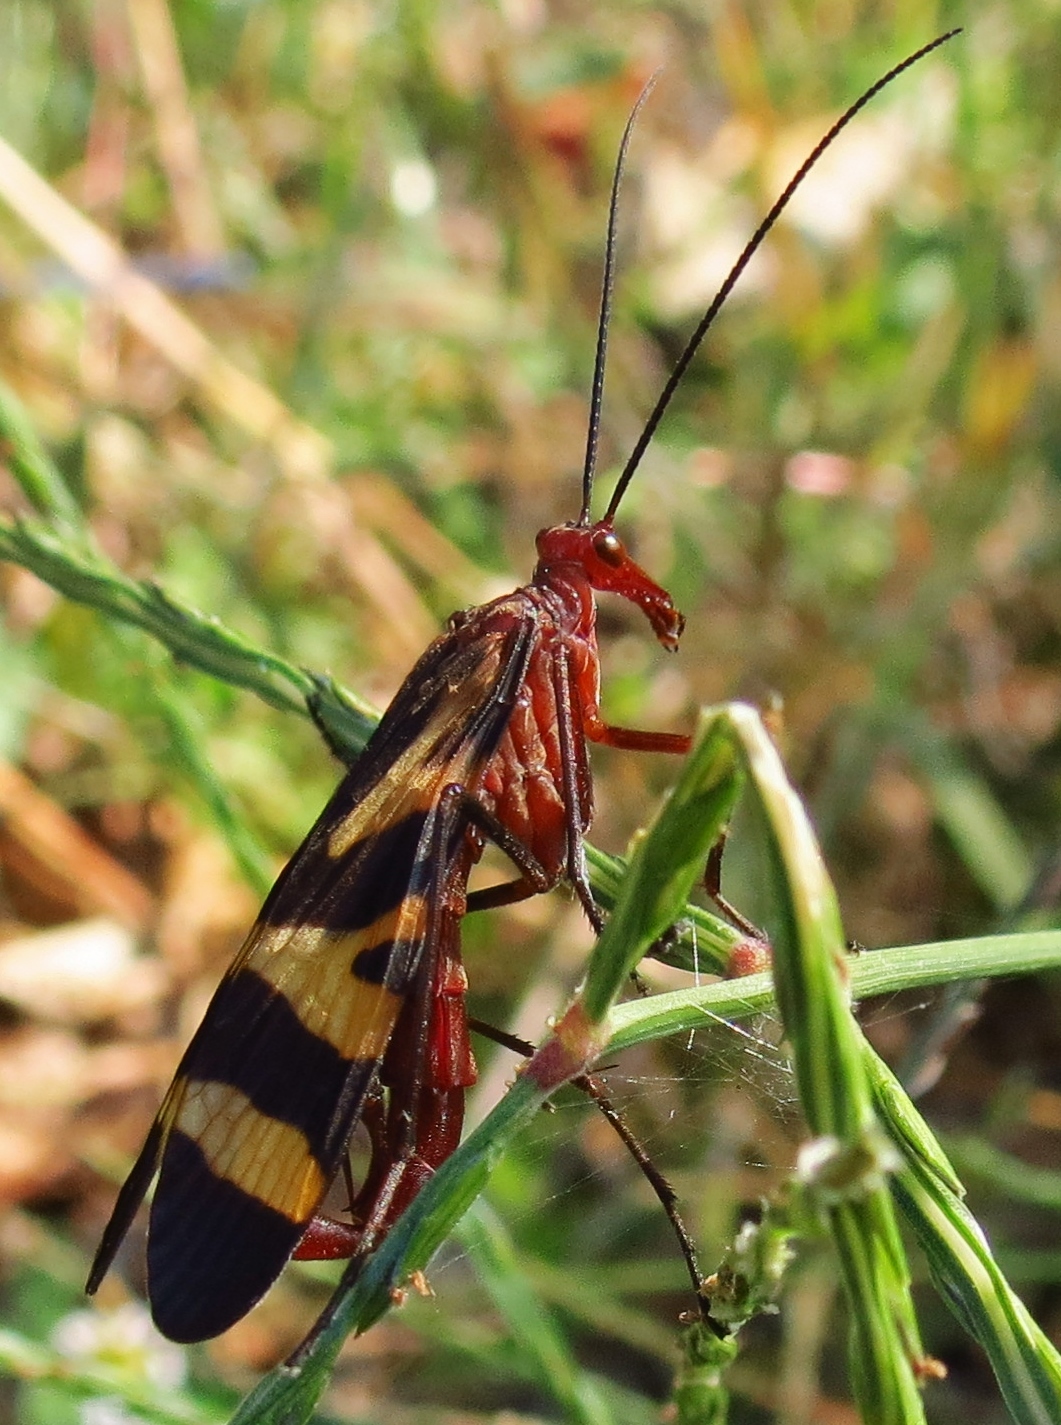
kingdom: Animalia
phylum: Arthropoda
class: Insecta
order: Mecoptera
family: Panorpidae
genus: Panorpa
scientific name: Panorpa nuptialis
